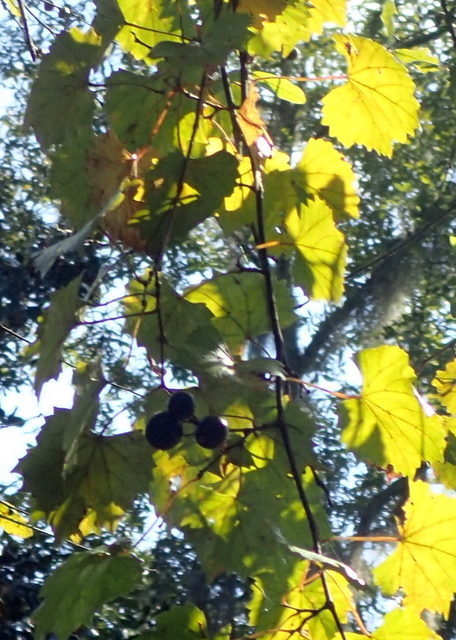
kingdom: Plantae
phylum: Tracheophyta
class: Magnoliopsida
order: Vitales
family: Vitaceae
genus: Vitis
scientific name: Vitis rotundifolia
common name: Muscadine grape
